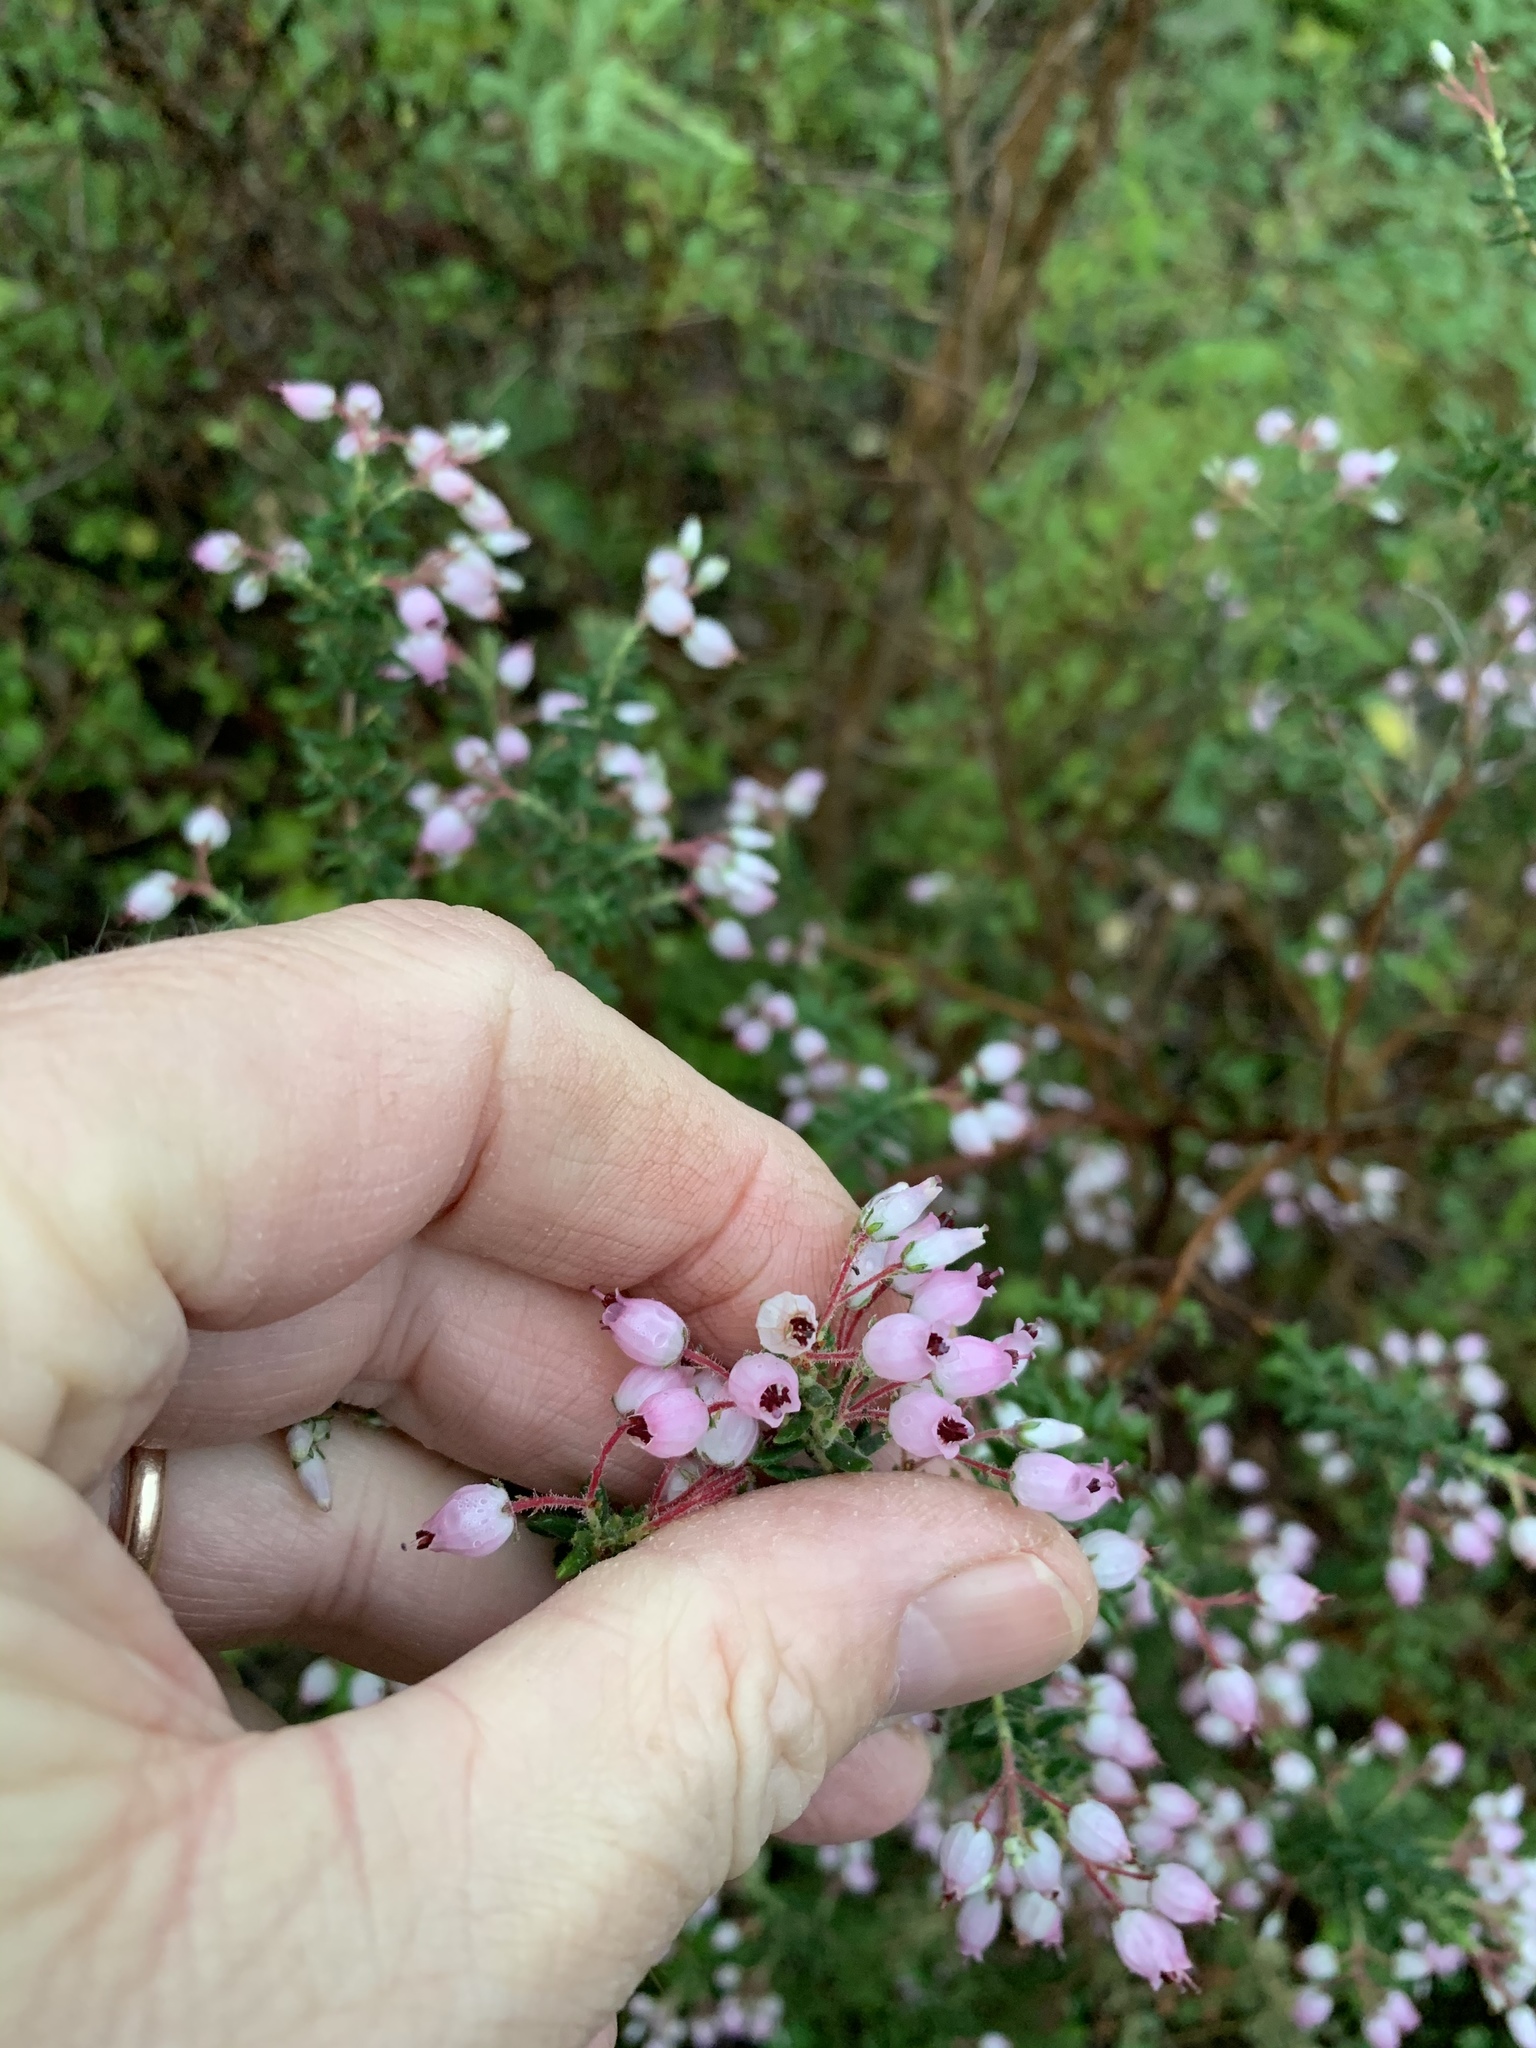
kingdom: Plantae
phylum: Tracheophyta
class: Magnoliopsida
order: Ericales
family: Ericaceae
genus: Erica
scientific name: Erica hirta
